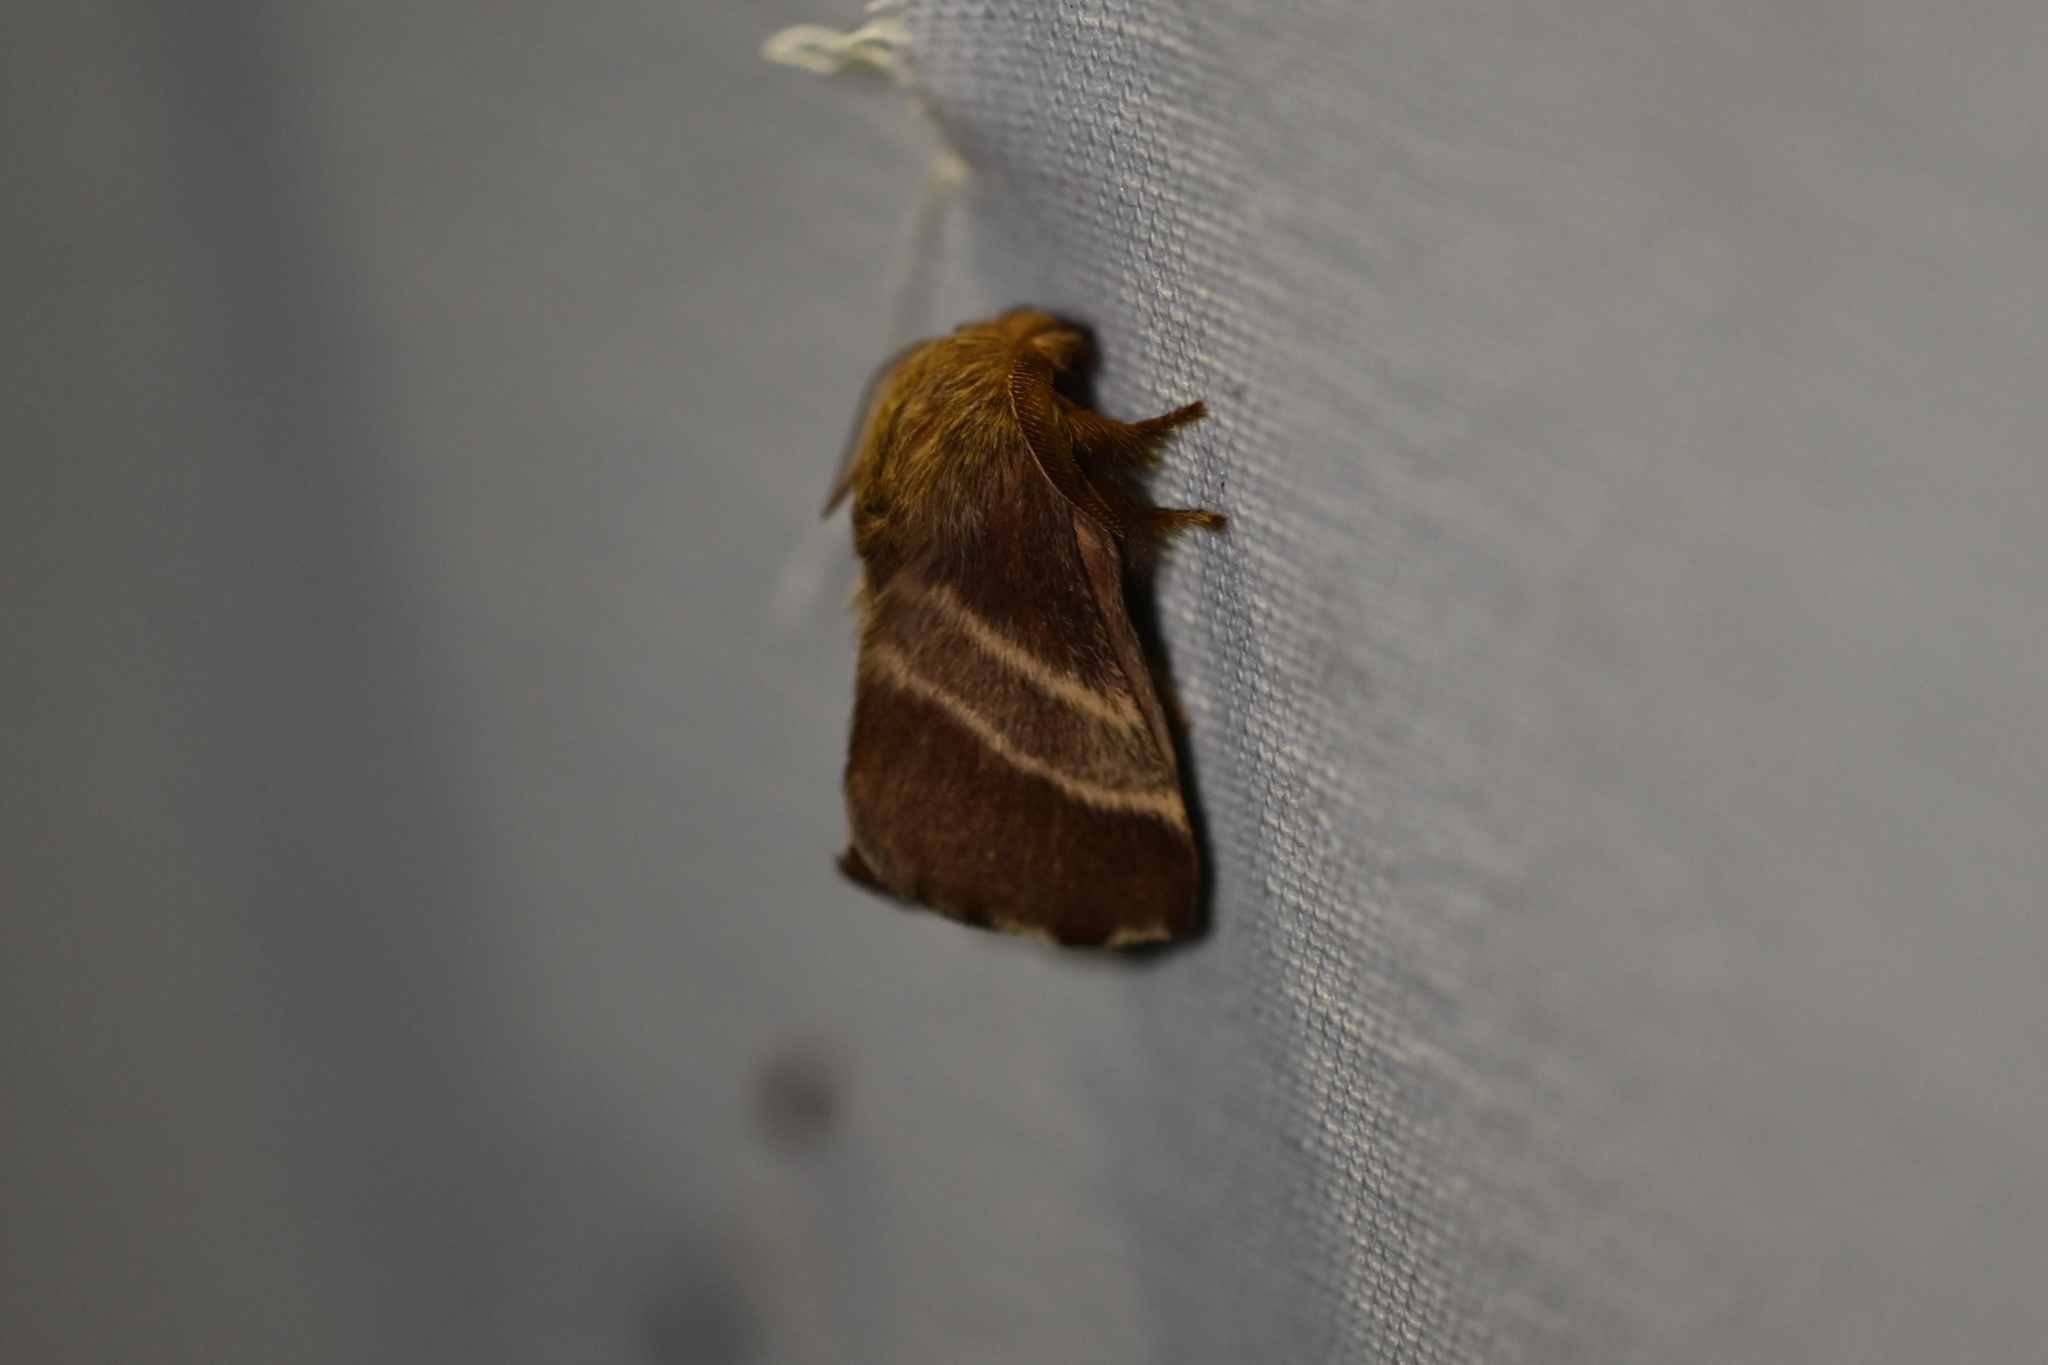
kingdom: Animalia
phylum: Arthropoda
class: Insecta
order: Lepidoptera
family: Lasiocampidae
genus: Malacosoma
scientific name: Malacosoma americana
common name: Eastern tent caterpillar moth
